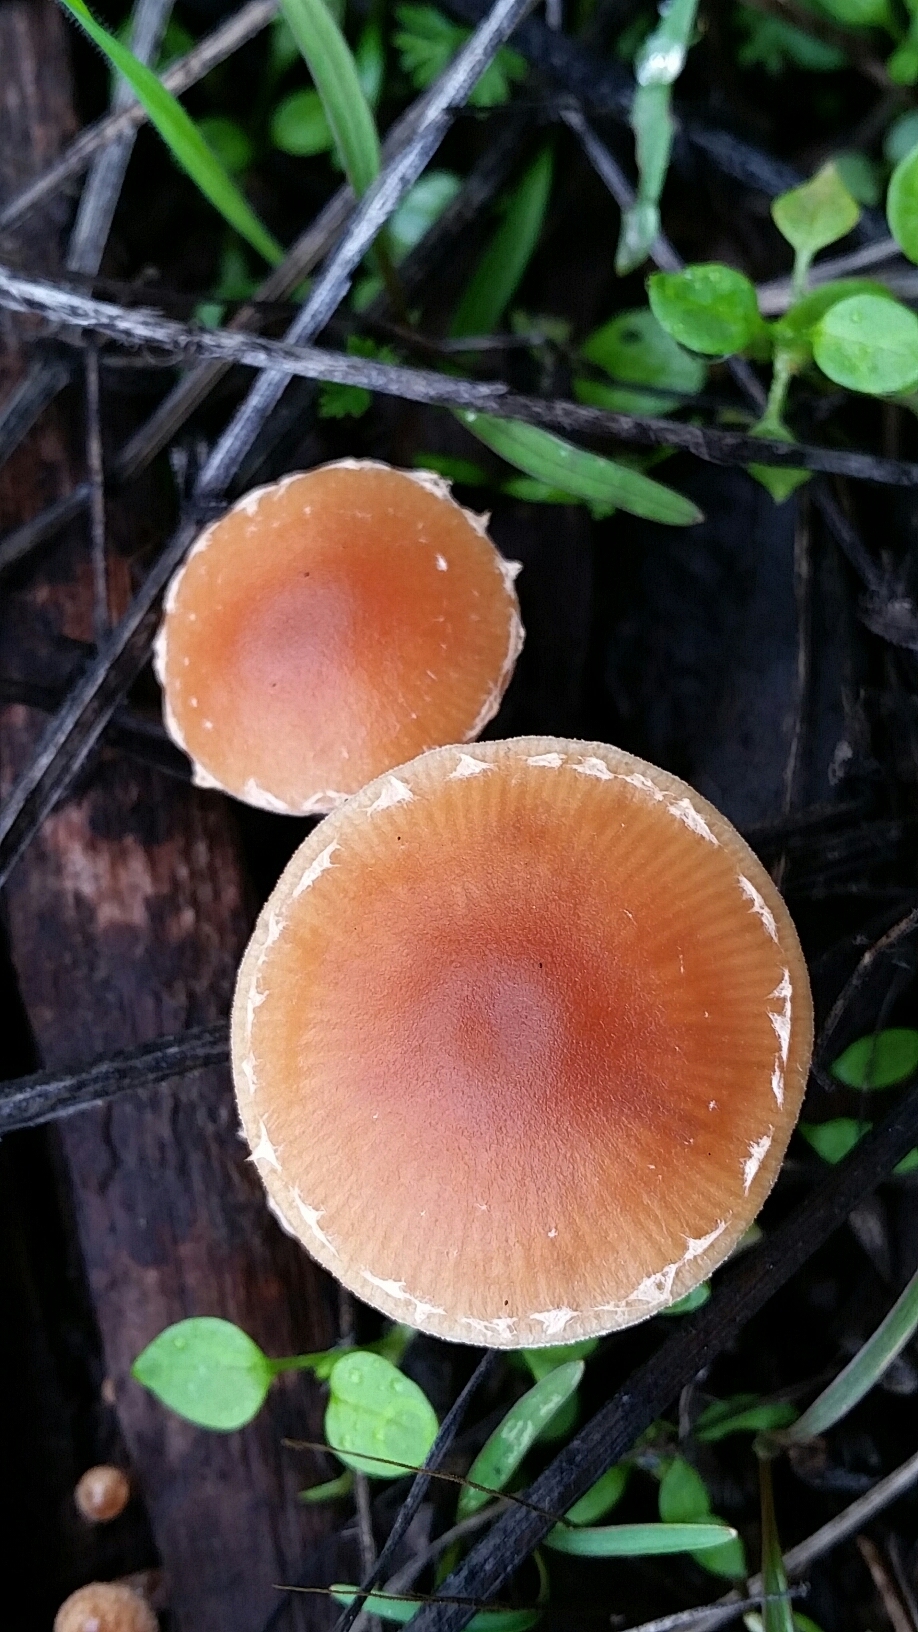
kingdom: Fungi
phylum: Basidiomycota
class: Agaricomycetes
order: Agaricales
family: Tubariaceae
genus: Tubaria
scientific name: Tubaria furfuracea
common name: Scurfy twiglet
